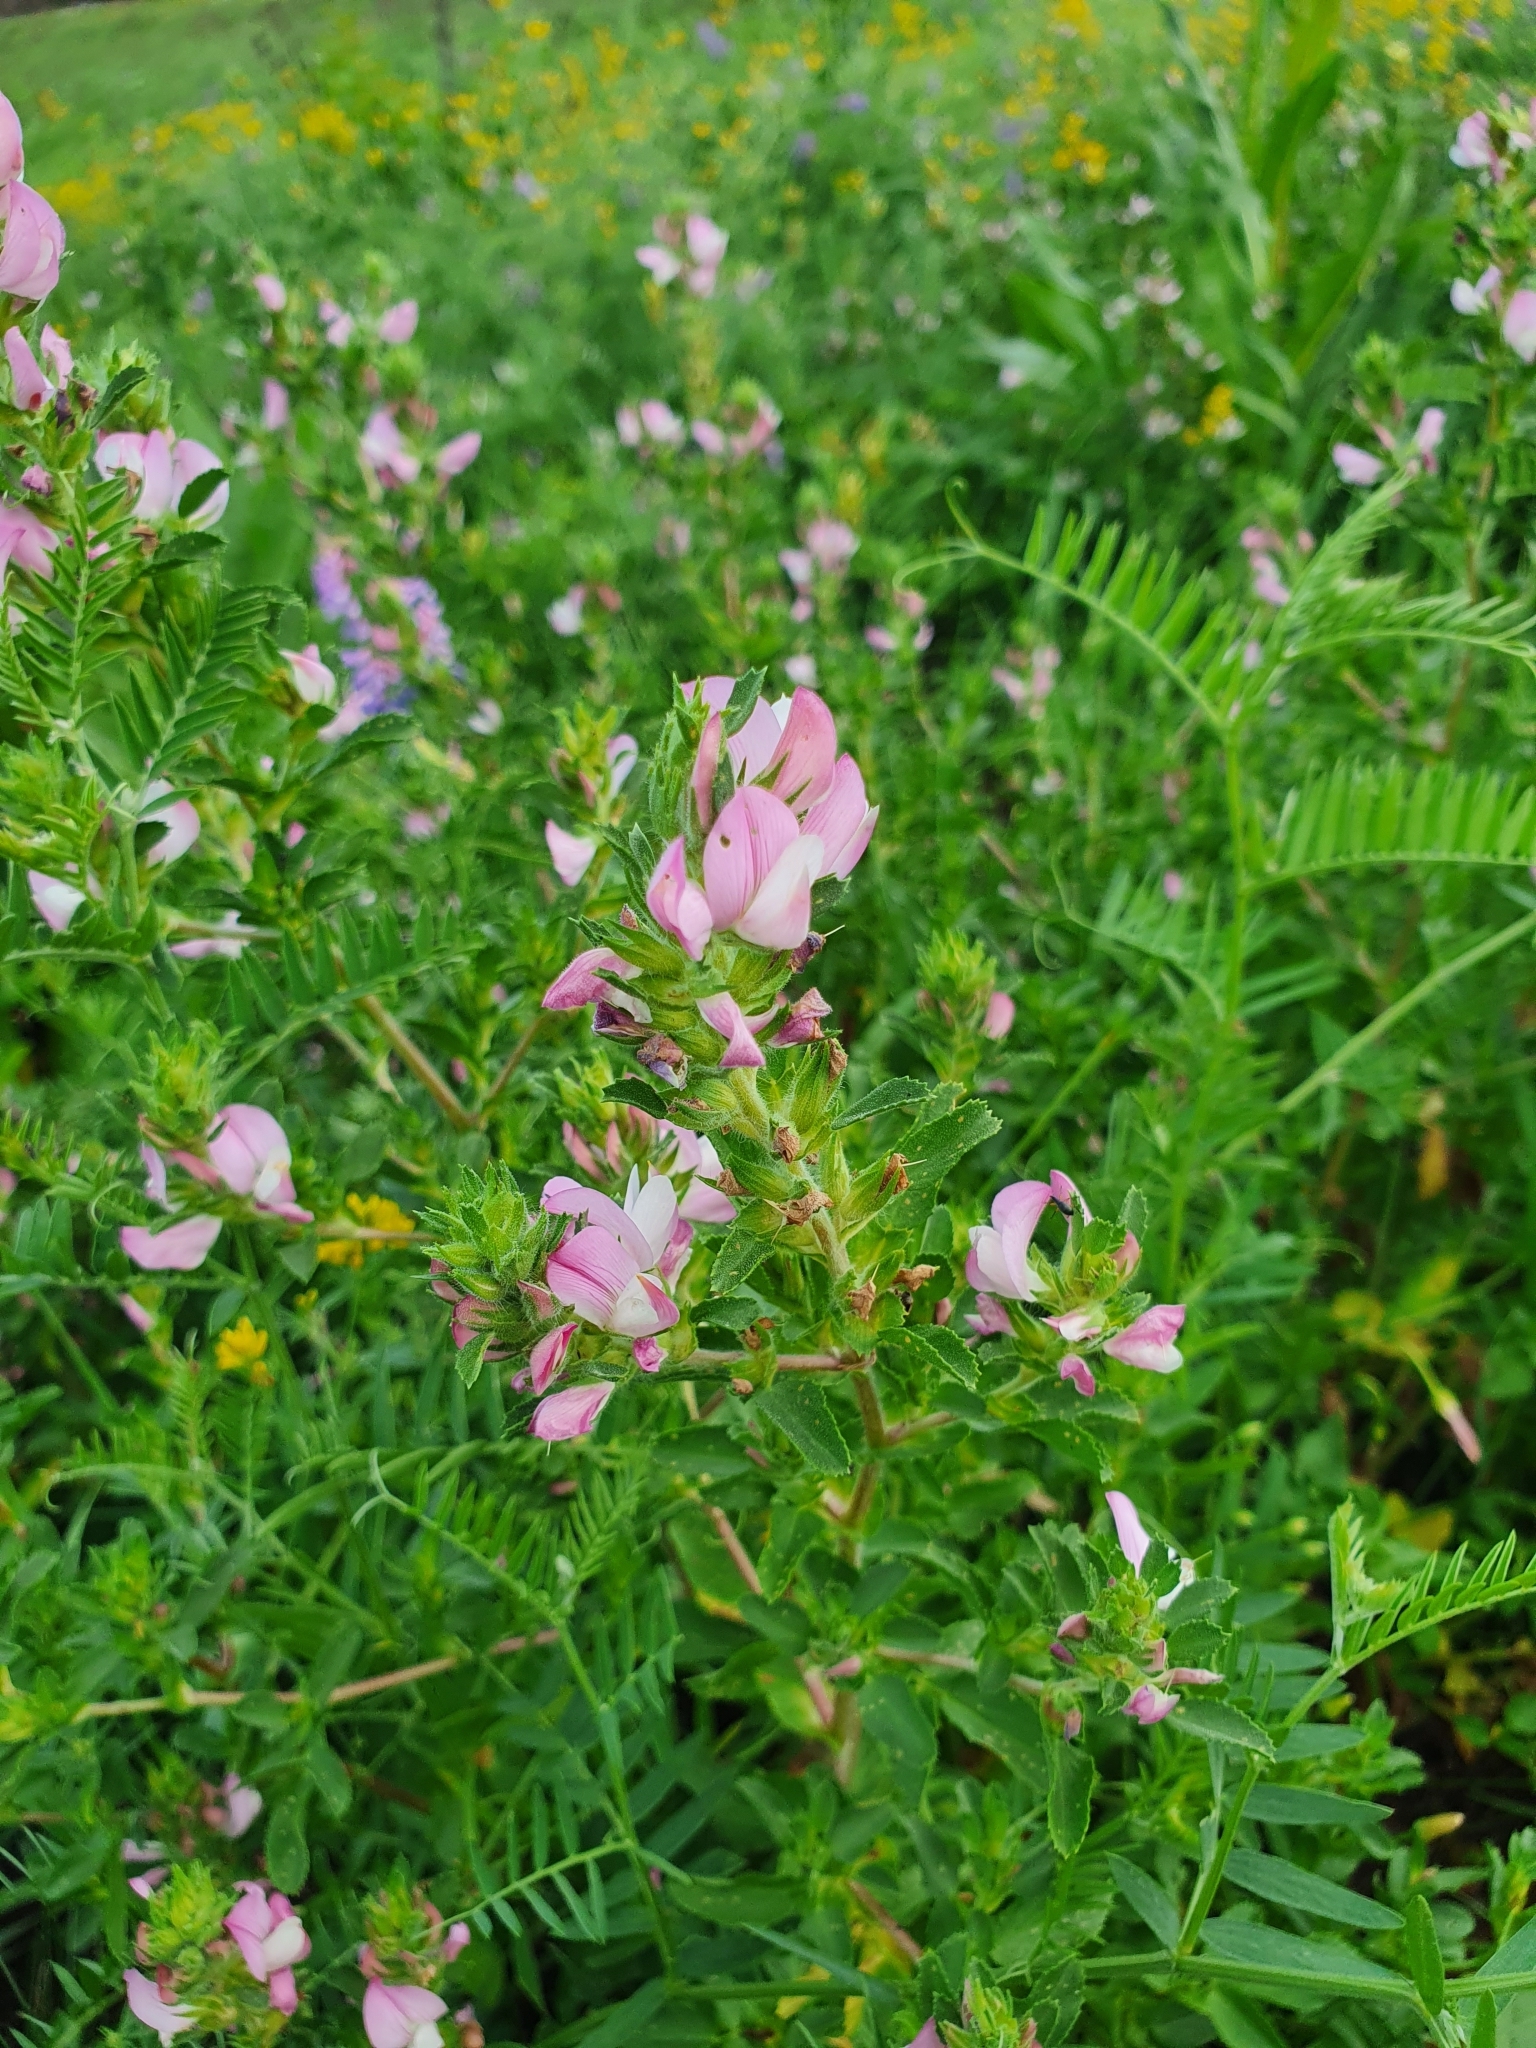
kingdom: Plantae
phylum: Tracheophyta
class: Magnoliopsida
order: Fabales
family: Fabaceae
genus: Ononis
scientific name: Ononis arvensis
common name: Field restharrow
